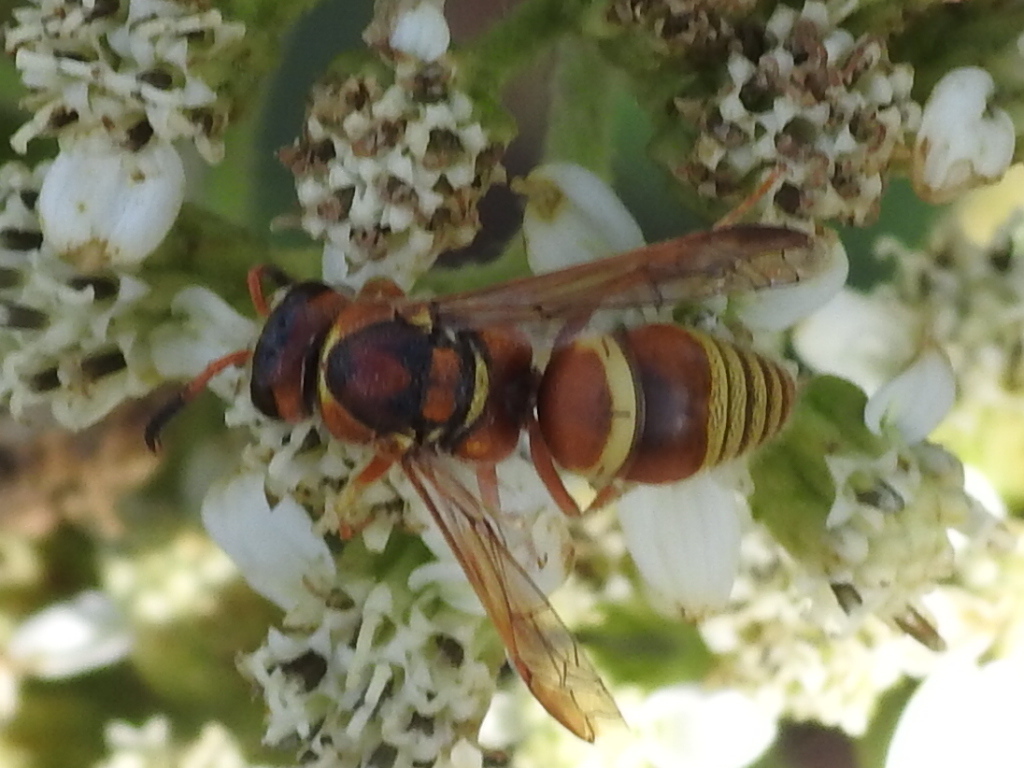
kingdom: Animalia
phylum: Arthropoda
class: Insecta
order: Hymenoptera
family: Eumenidae
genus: Euodynerus
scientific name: Euodynerus pratensis
